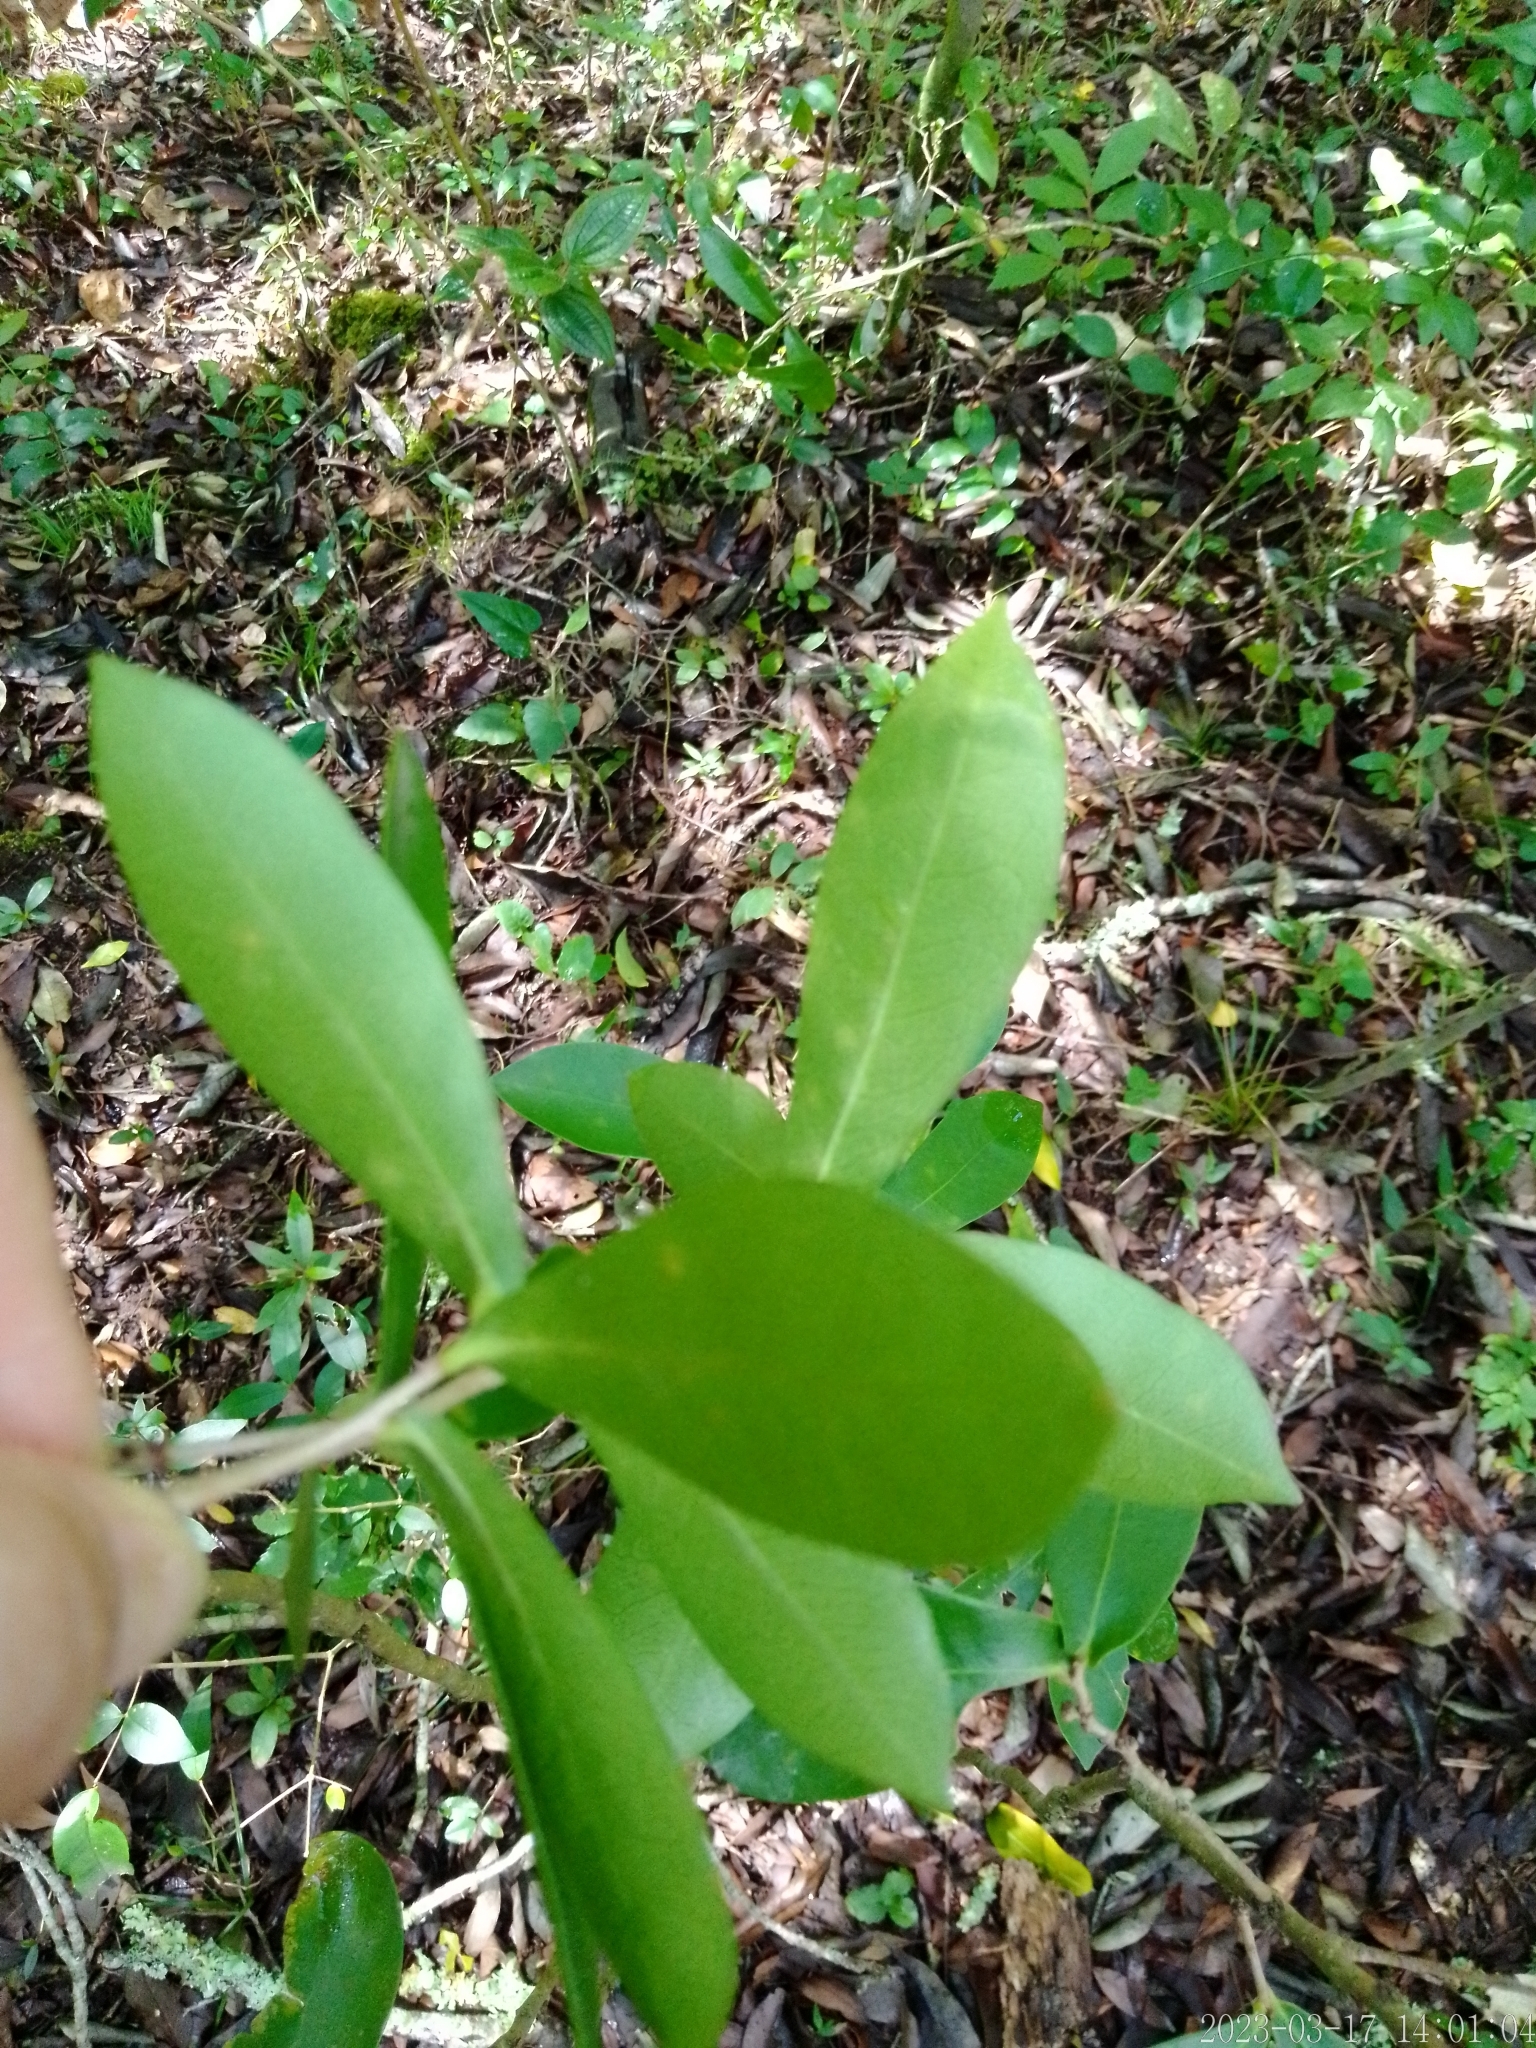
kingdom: Plantae
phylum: Tracheophyta
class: Magnoliopsida
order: Malvales
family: Thymelaeaceae
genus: Daphnopsis
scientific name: Daphnopsis racemosa
